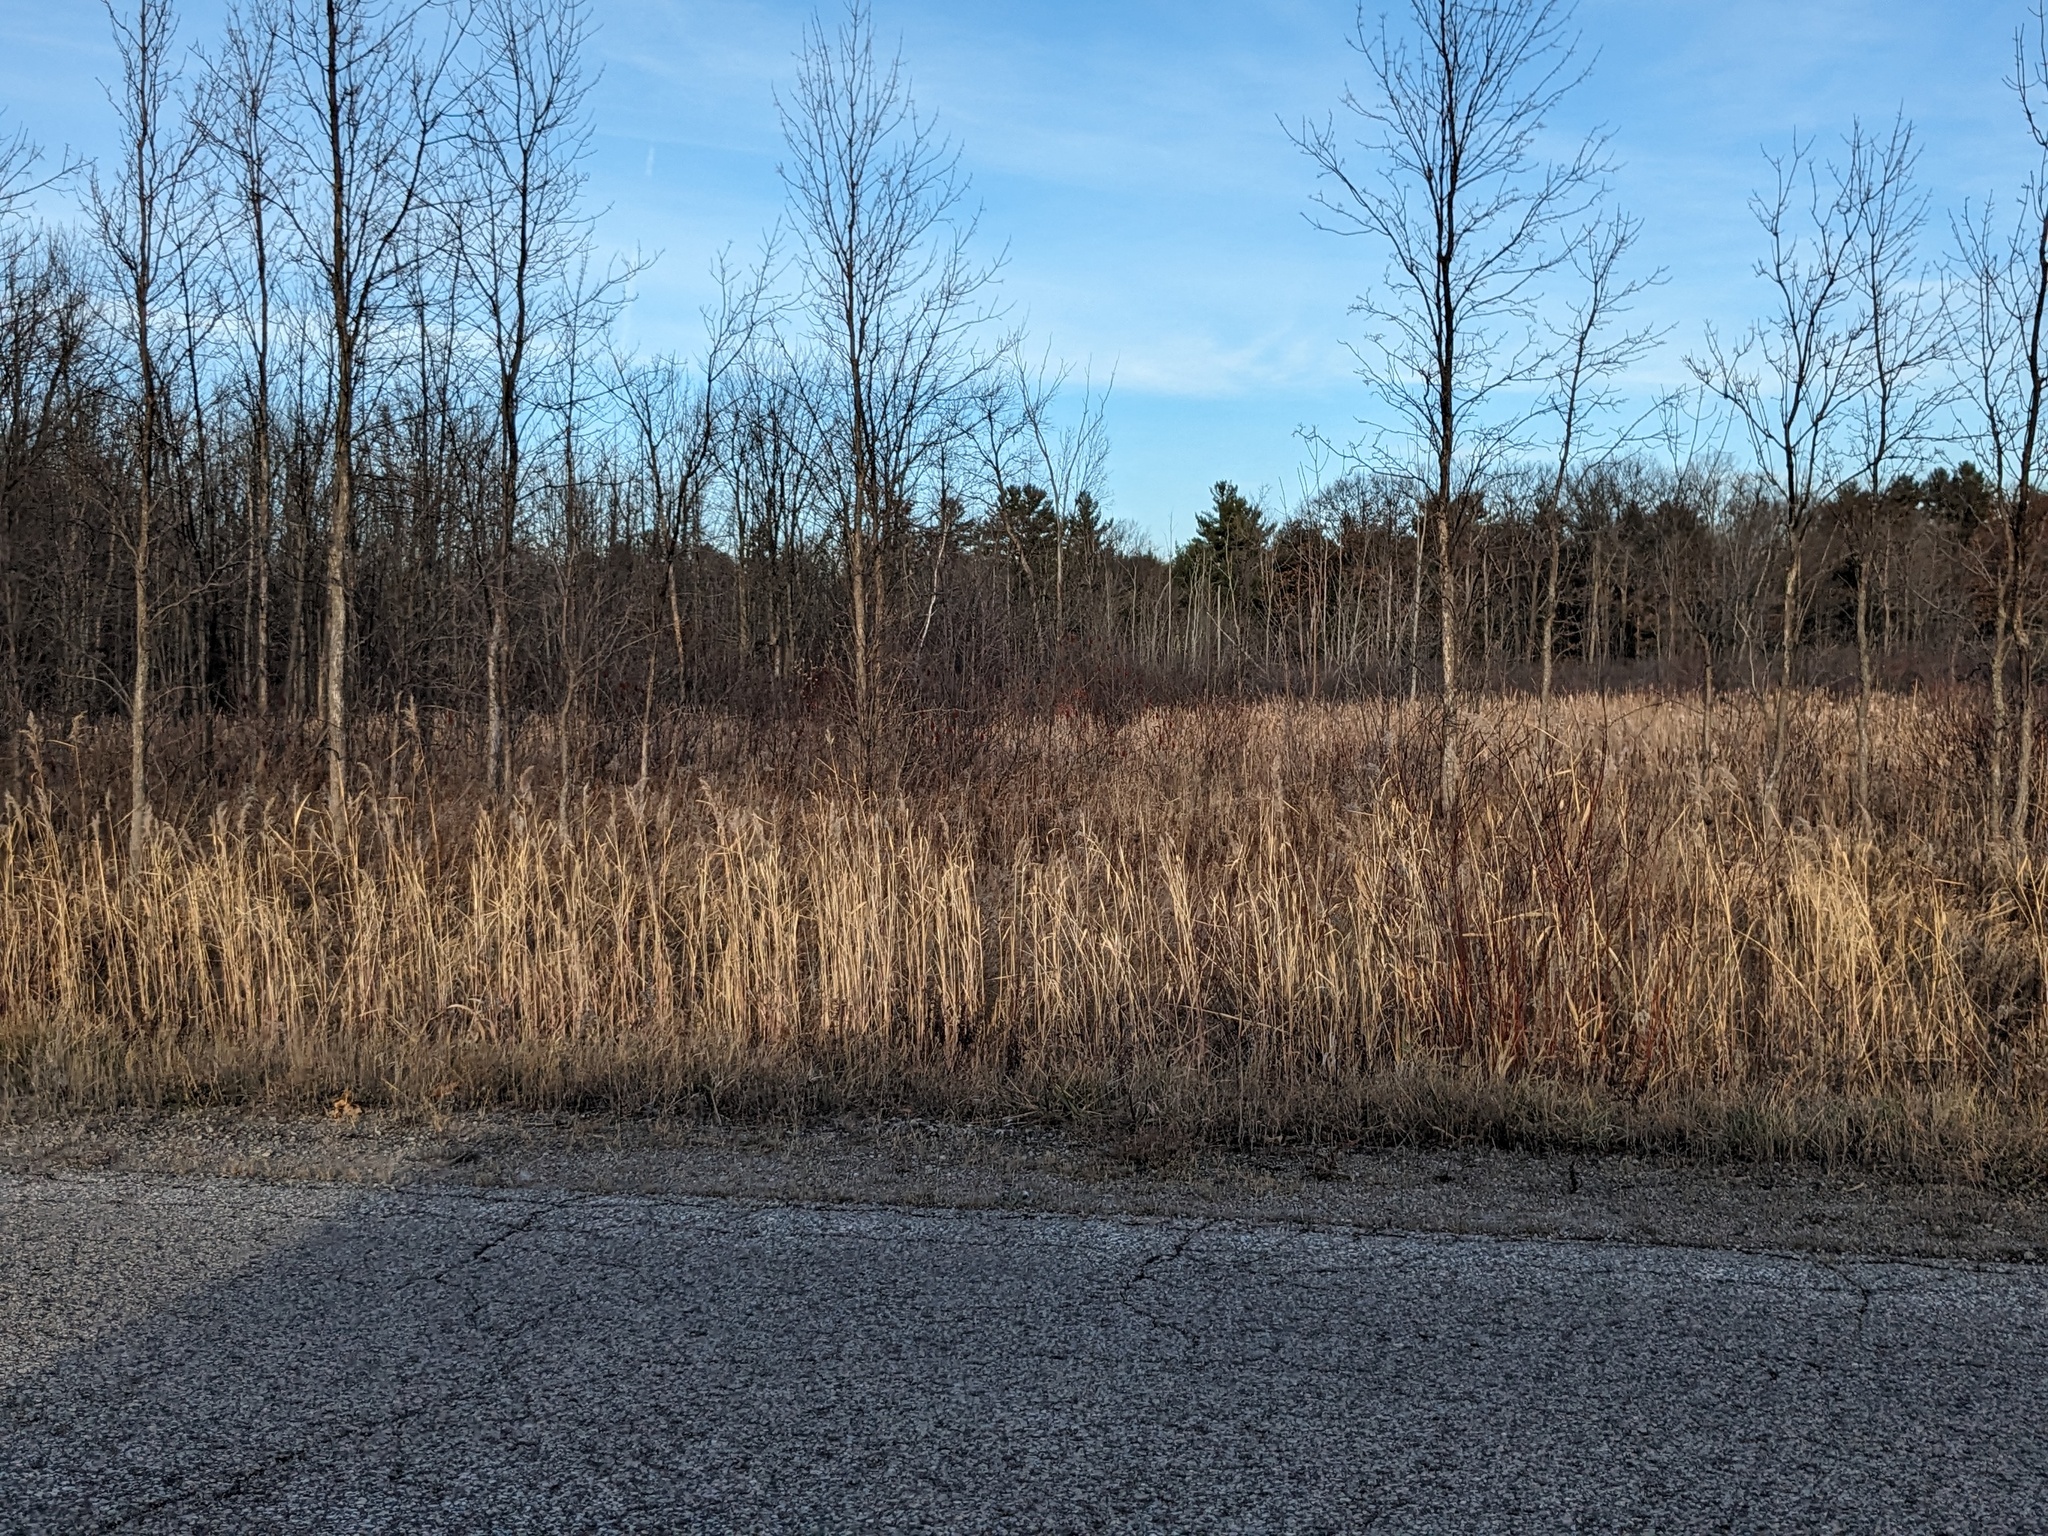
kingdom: Plantae
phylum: Tracheophyta
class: Liliopsida
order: Poales
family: Poaceae
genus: Phragmites
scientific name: Phragmites australis
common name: Common reed
